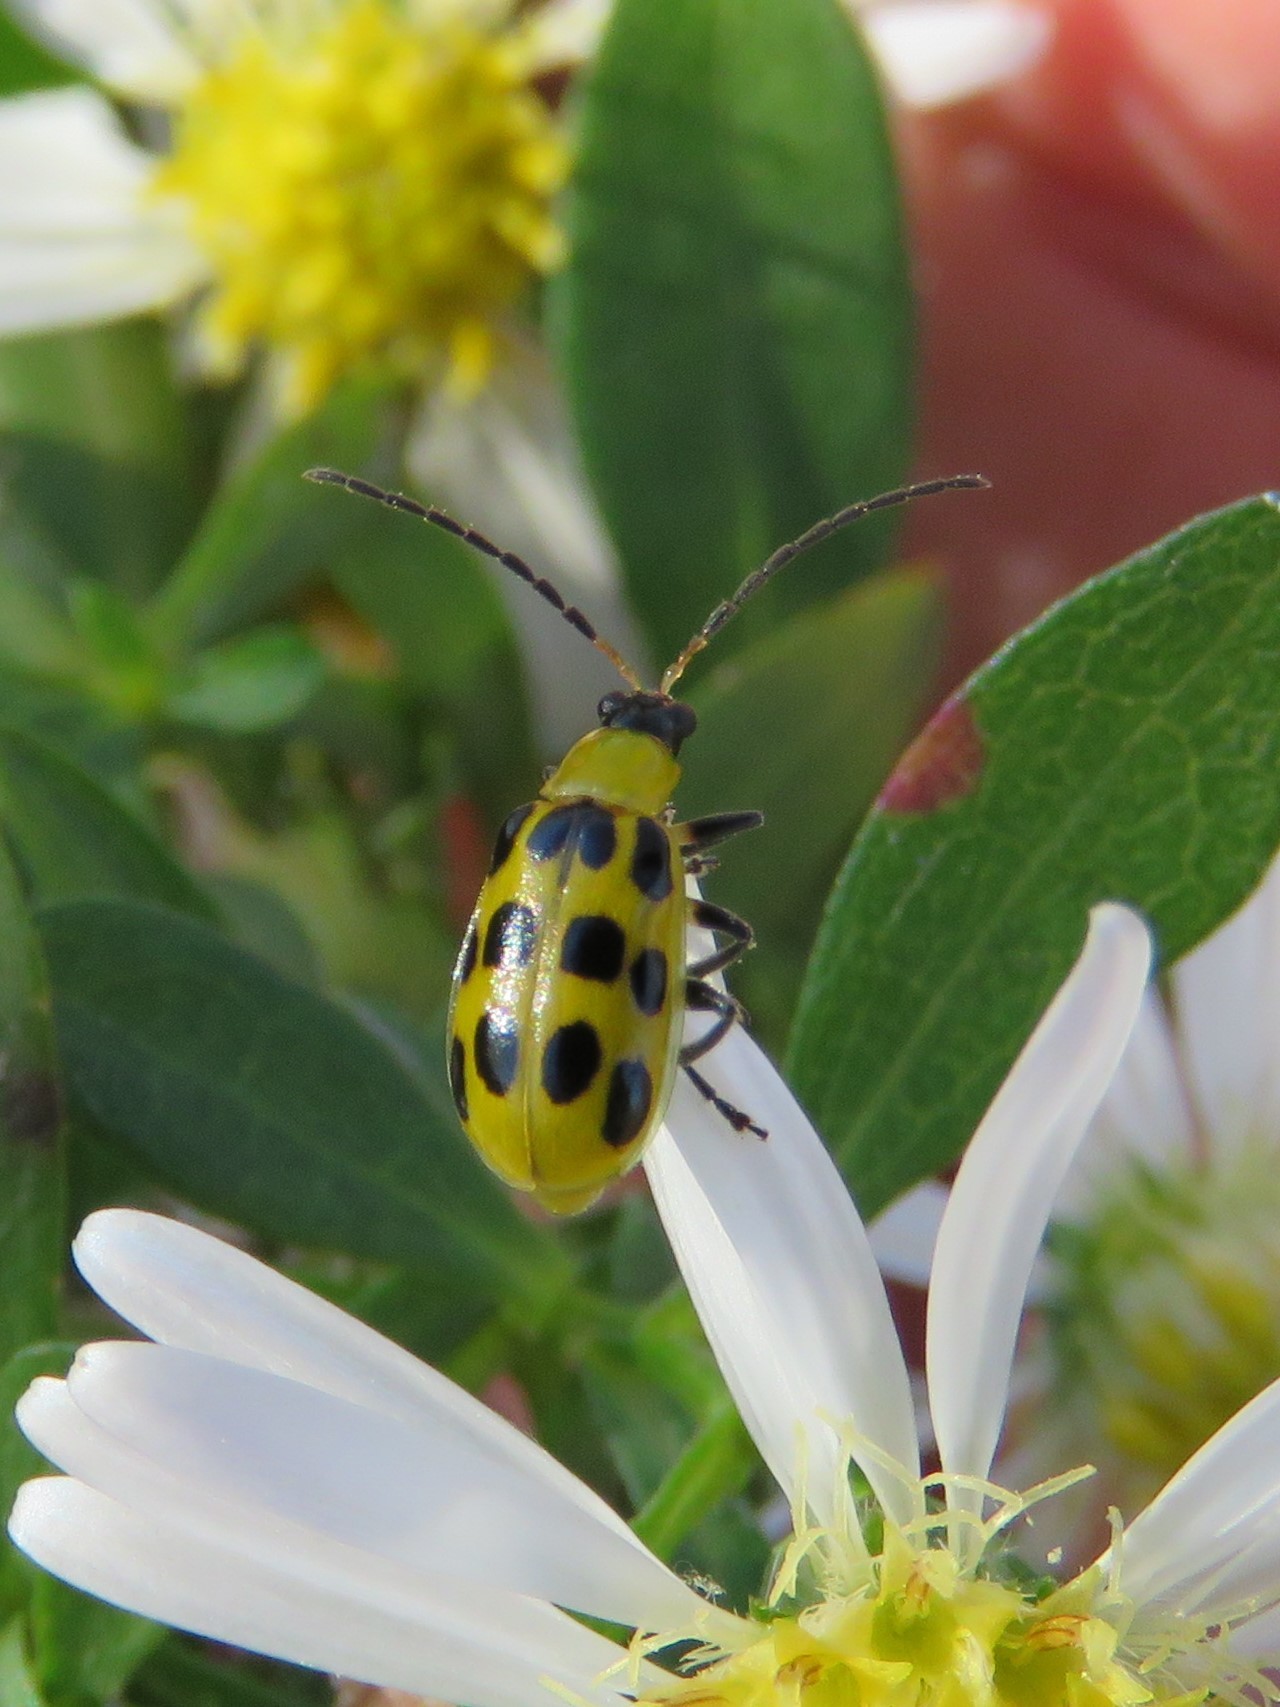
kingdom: Animalia
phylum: Arthropoda
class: Insecta
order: Coleoptera
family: Chrysomelidae
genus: Diabrotica
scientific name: Diabrotica undecimpunctata
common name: Spotted cucumber beetle
